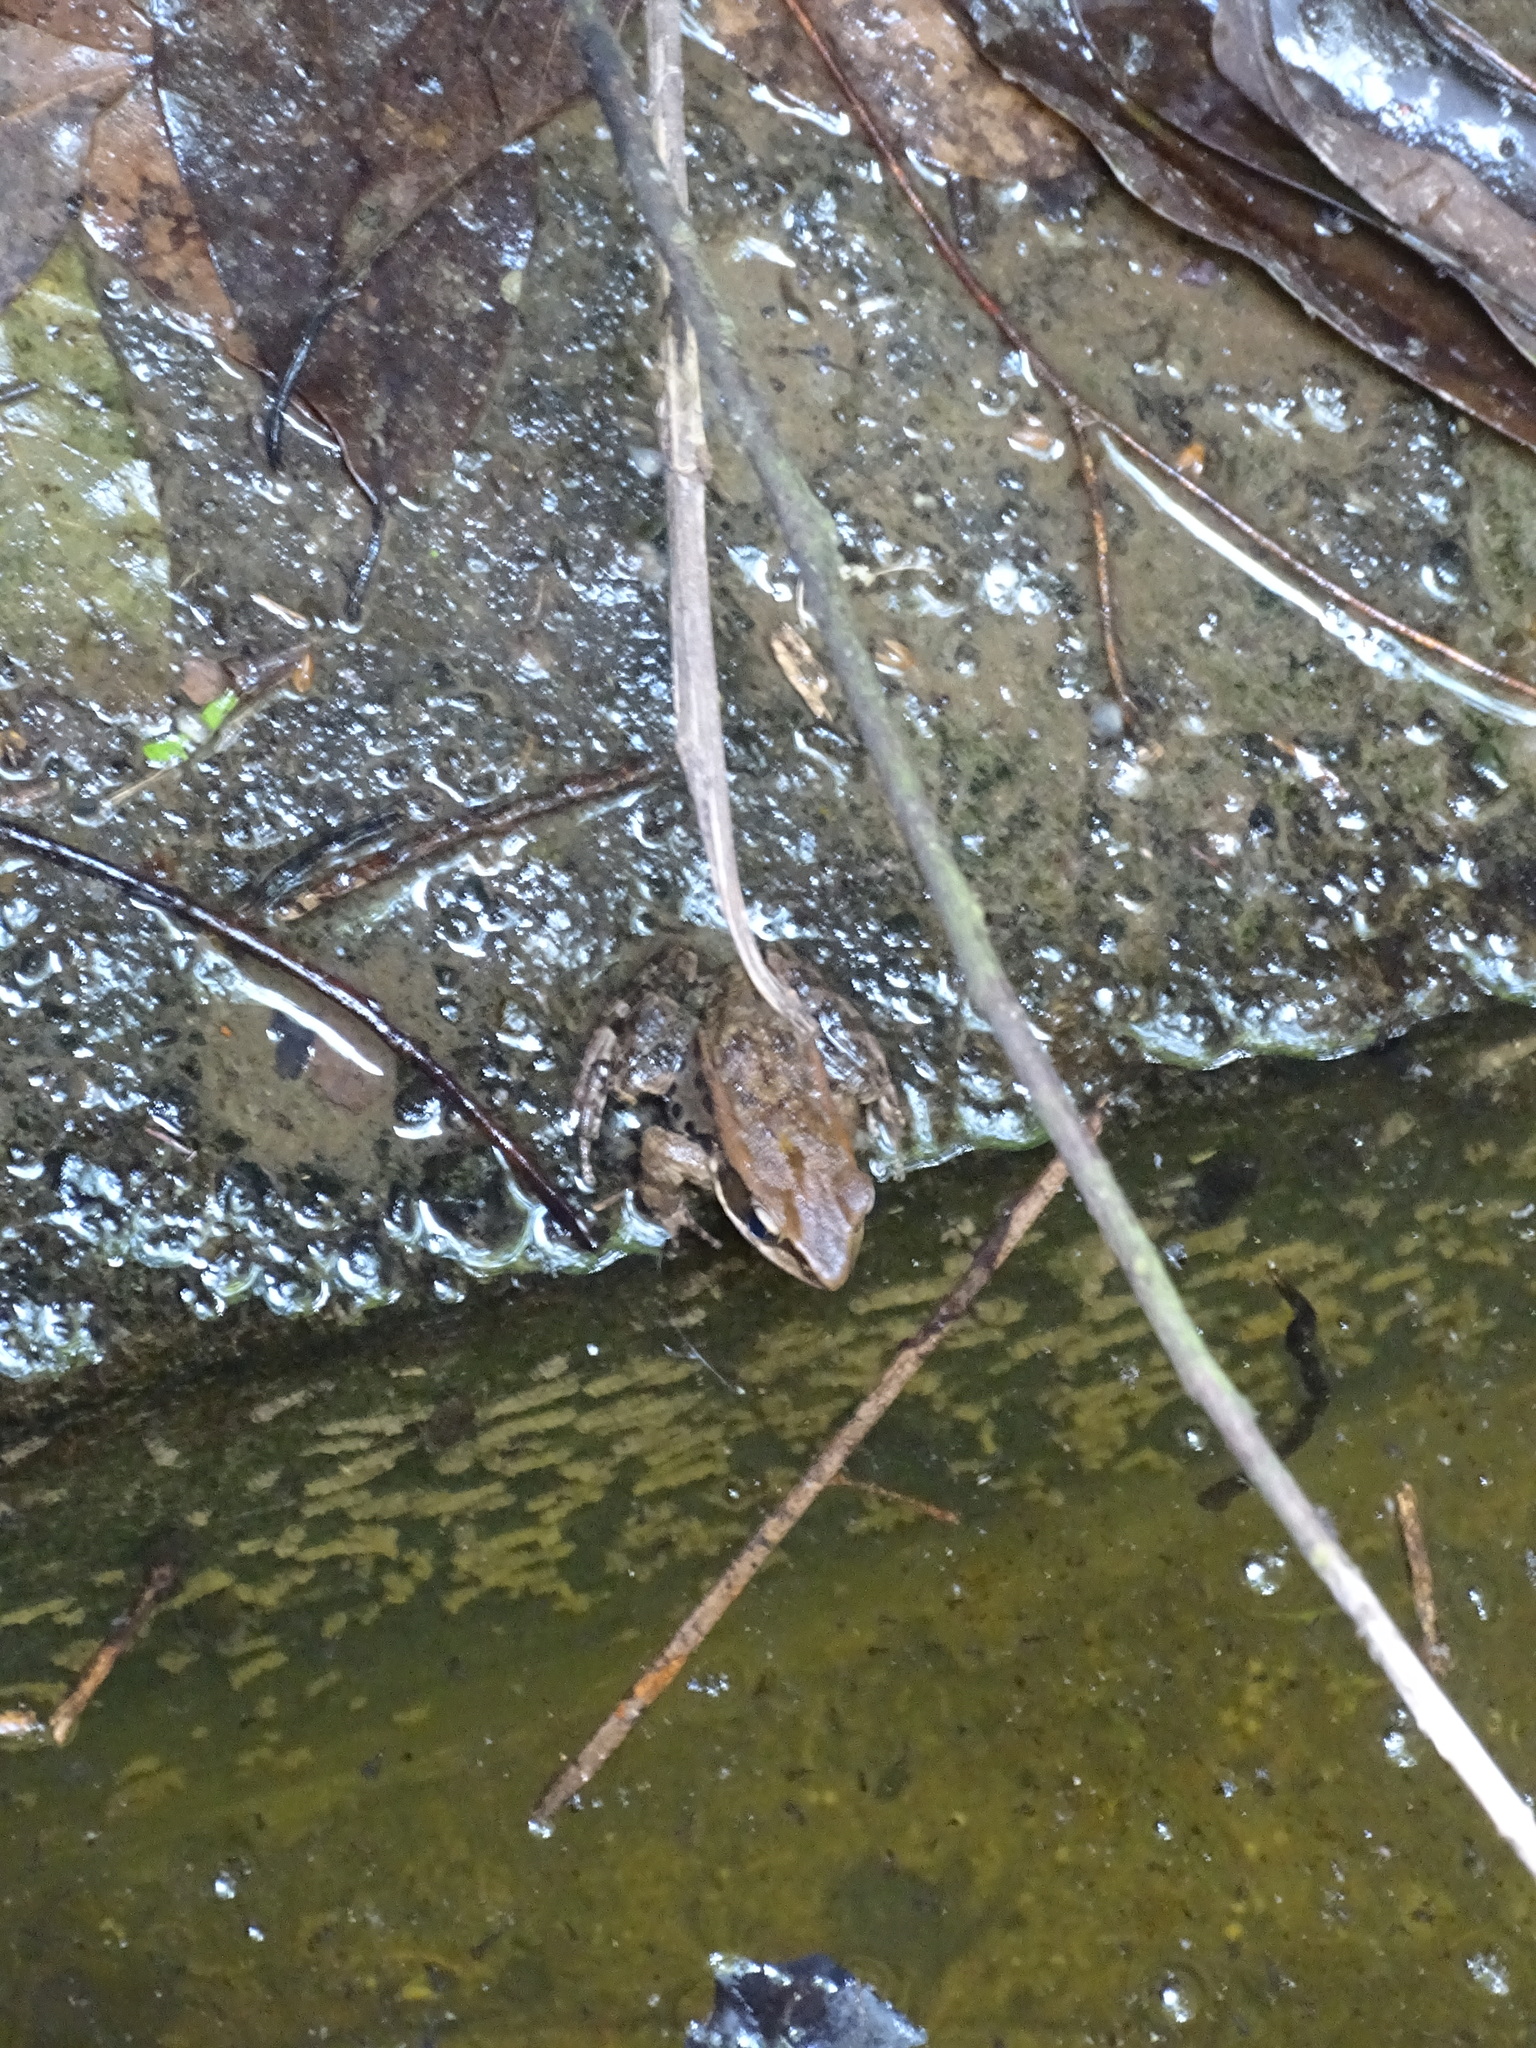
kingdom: Animalia
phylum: Chordata
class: Amphibia
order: Anura
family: Ranidae
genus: Hylarana
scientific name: Hylarana latouchii
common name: Broad-folded frog
